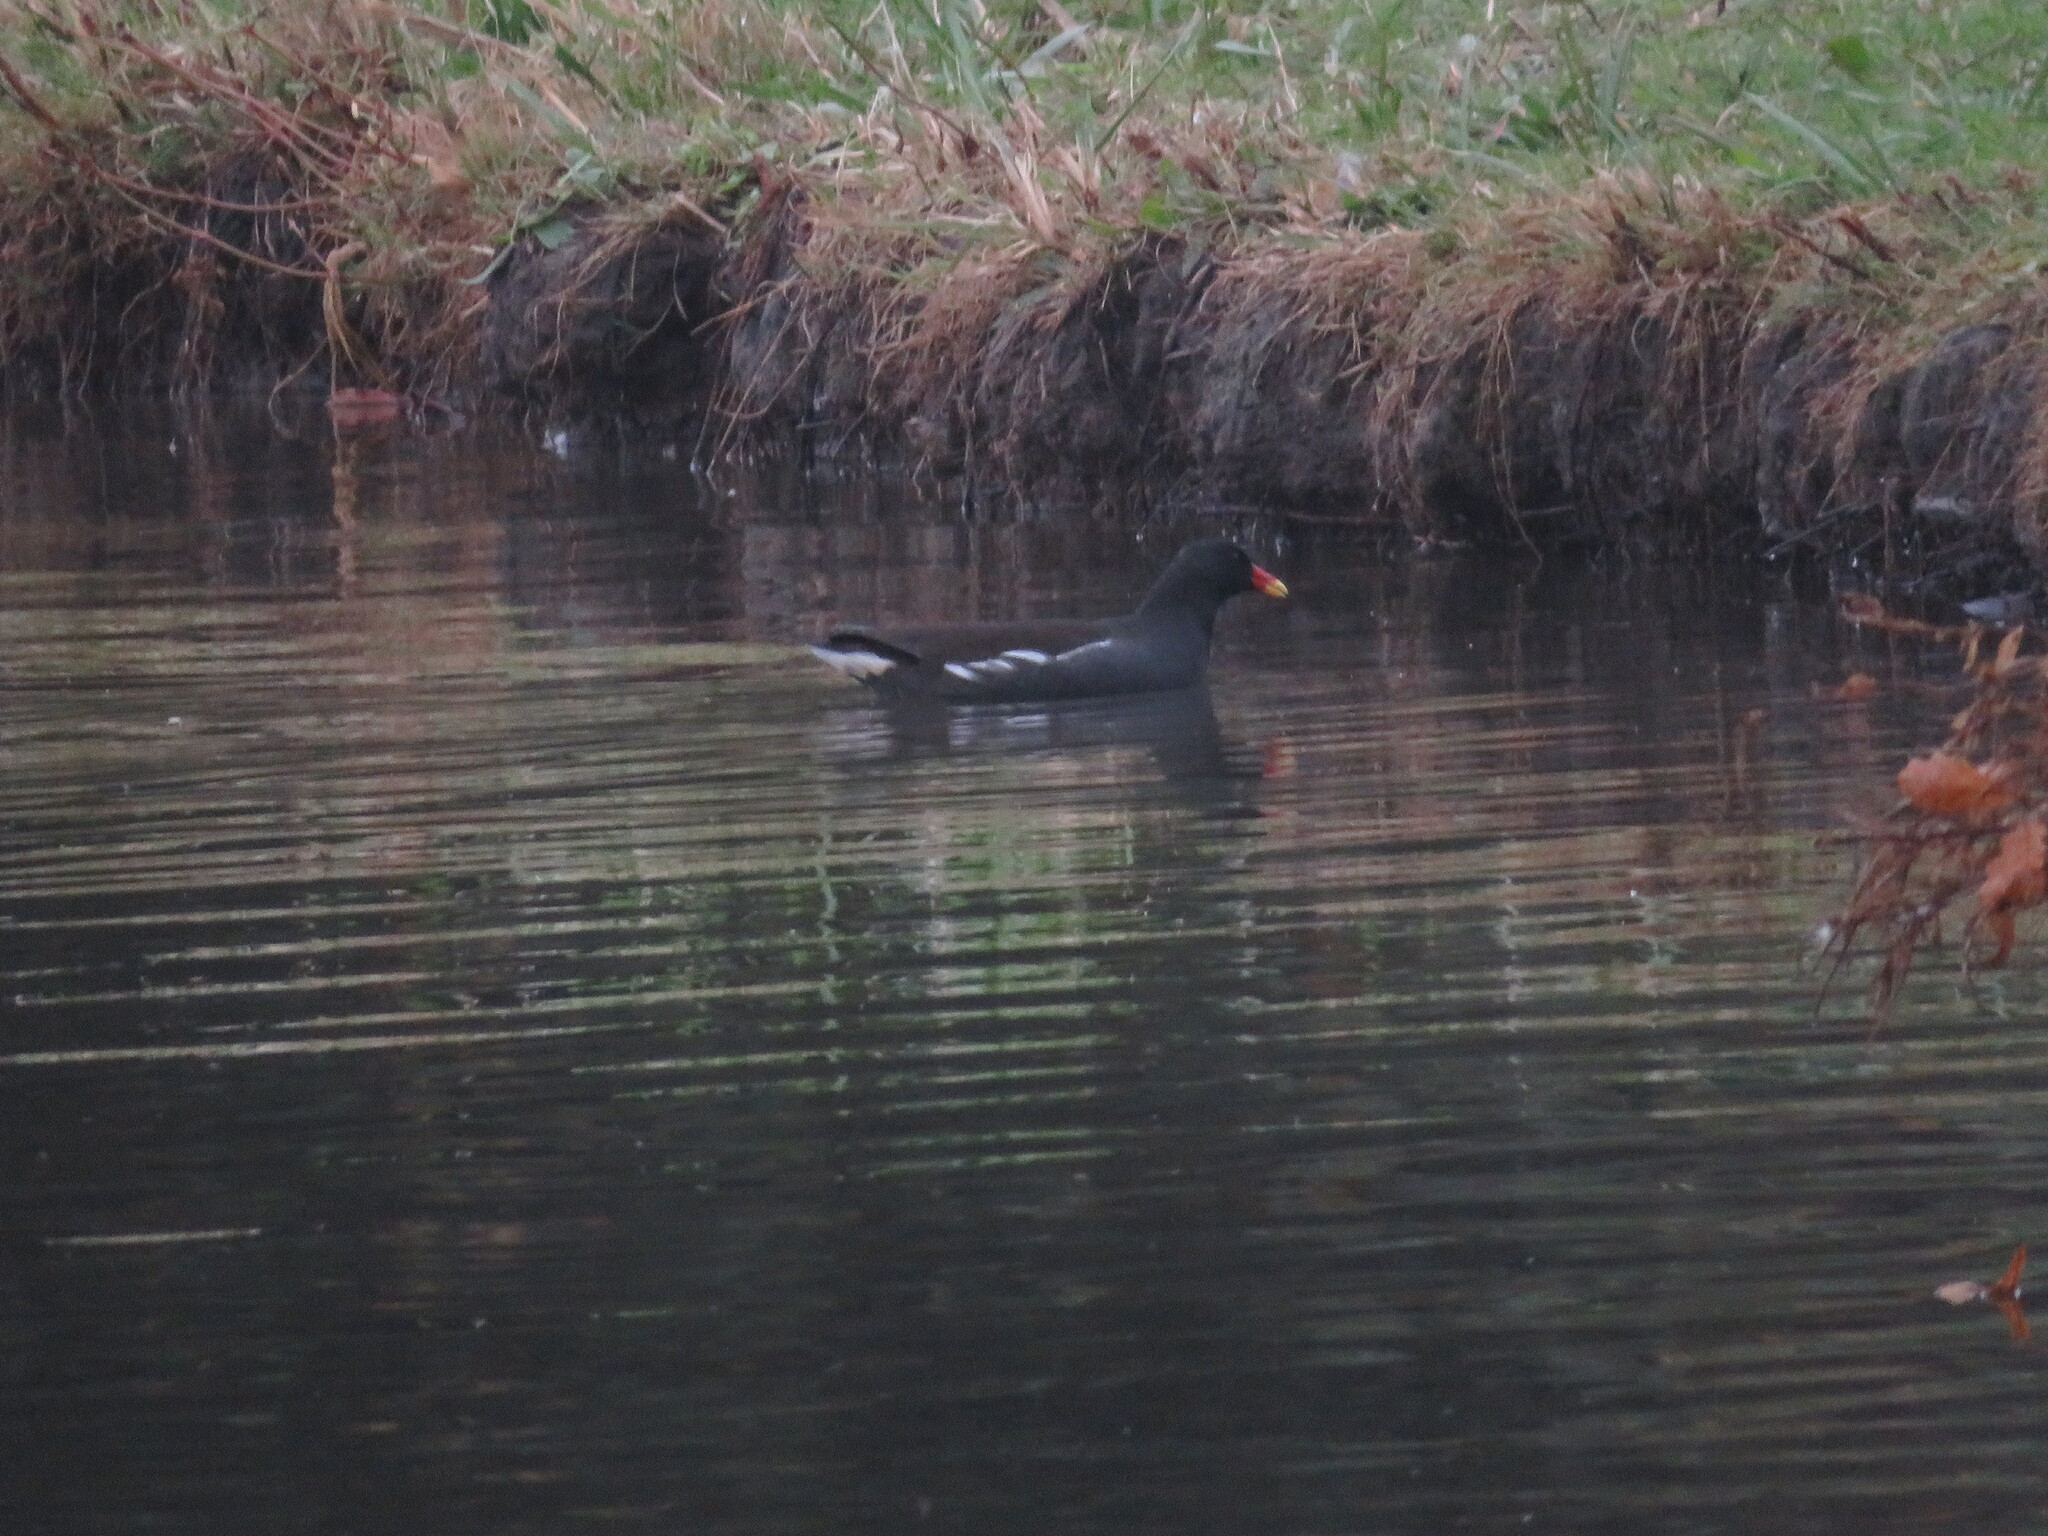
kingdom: Animalia
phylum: Chordata
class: Aves
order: Gruiformes
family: Rallidae
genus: Gallinula
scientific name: Gallinula chloropus
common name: Common moorhen
